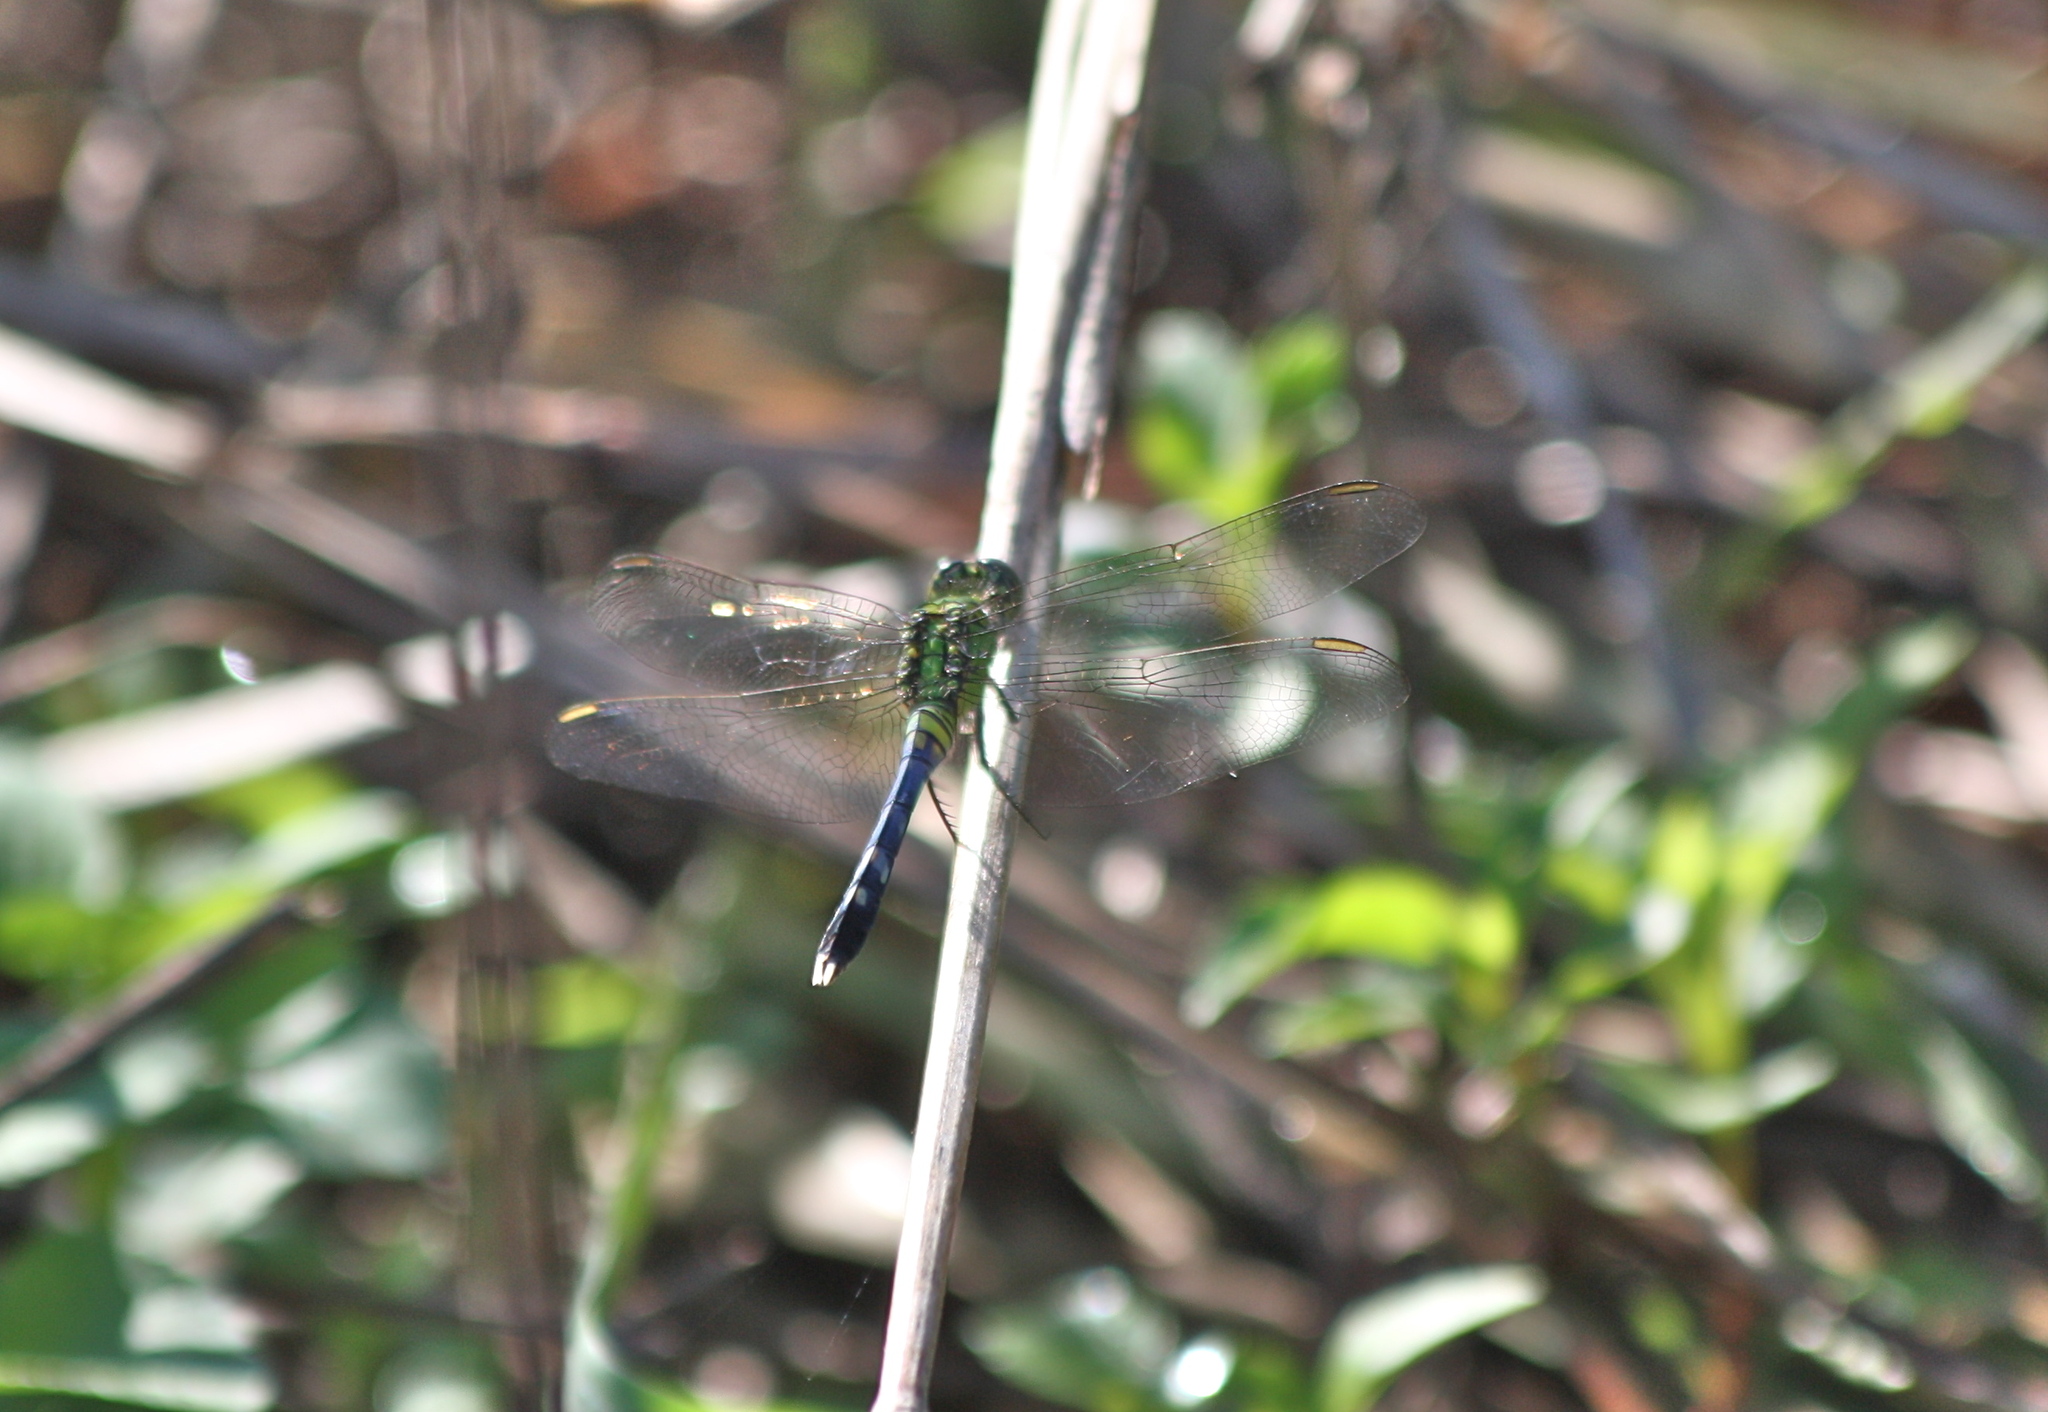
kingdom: Animalia
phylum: Arthropoda
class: Insecta
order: Odonata
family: Libellulidae
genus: Erythemis
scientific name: Erythemis simplicicollis
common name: Eastern pondhawk
